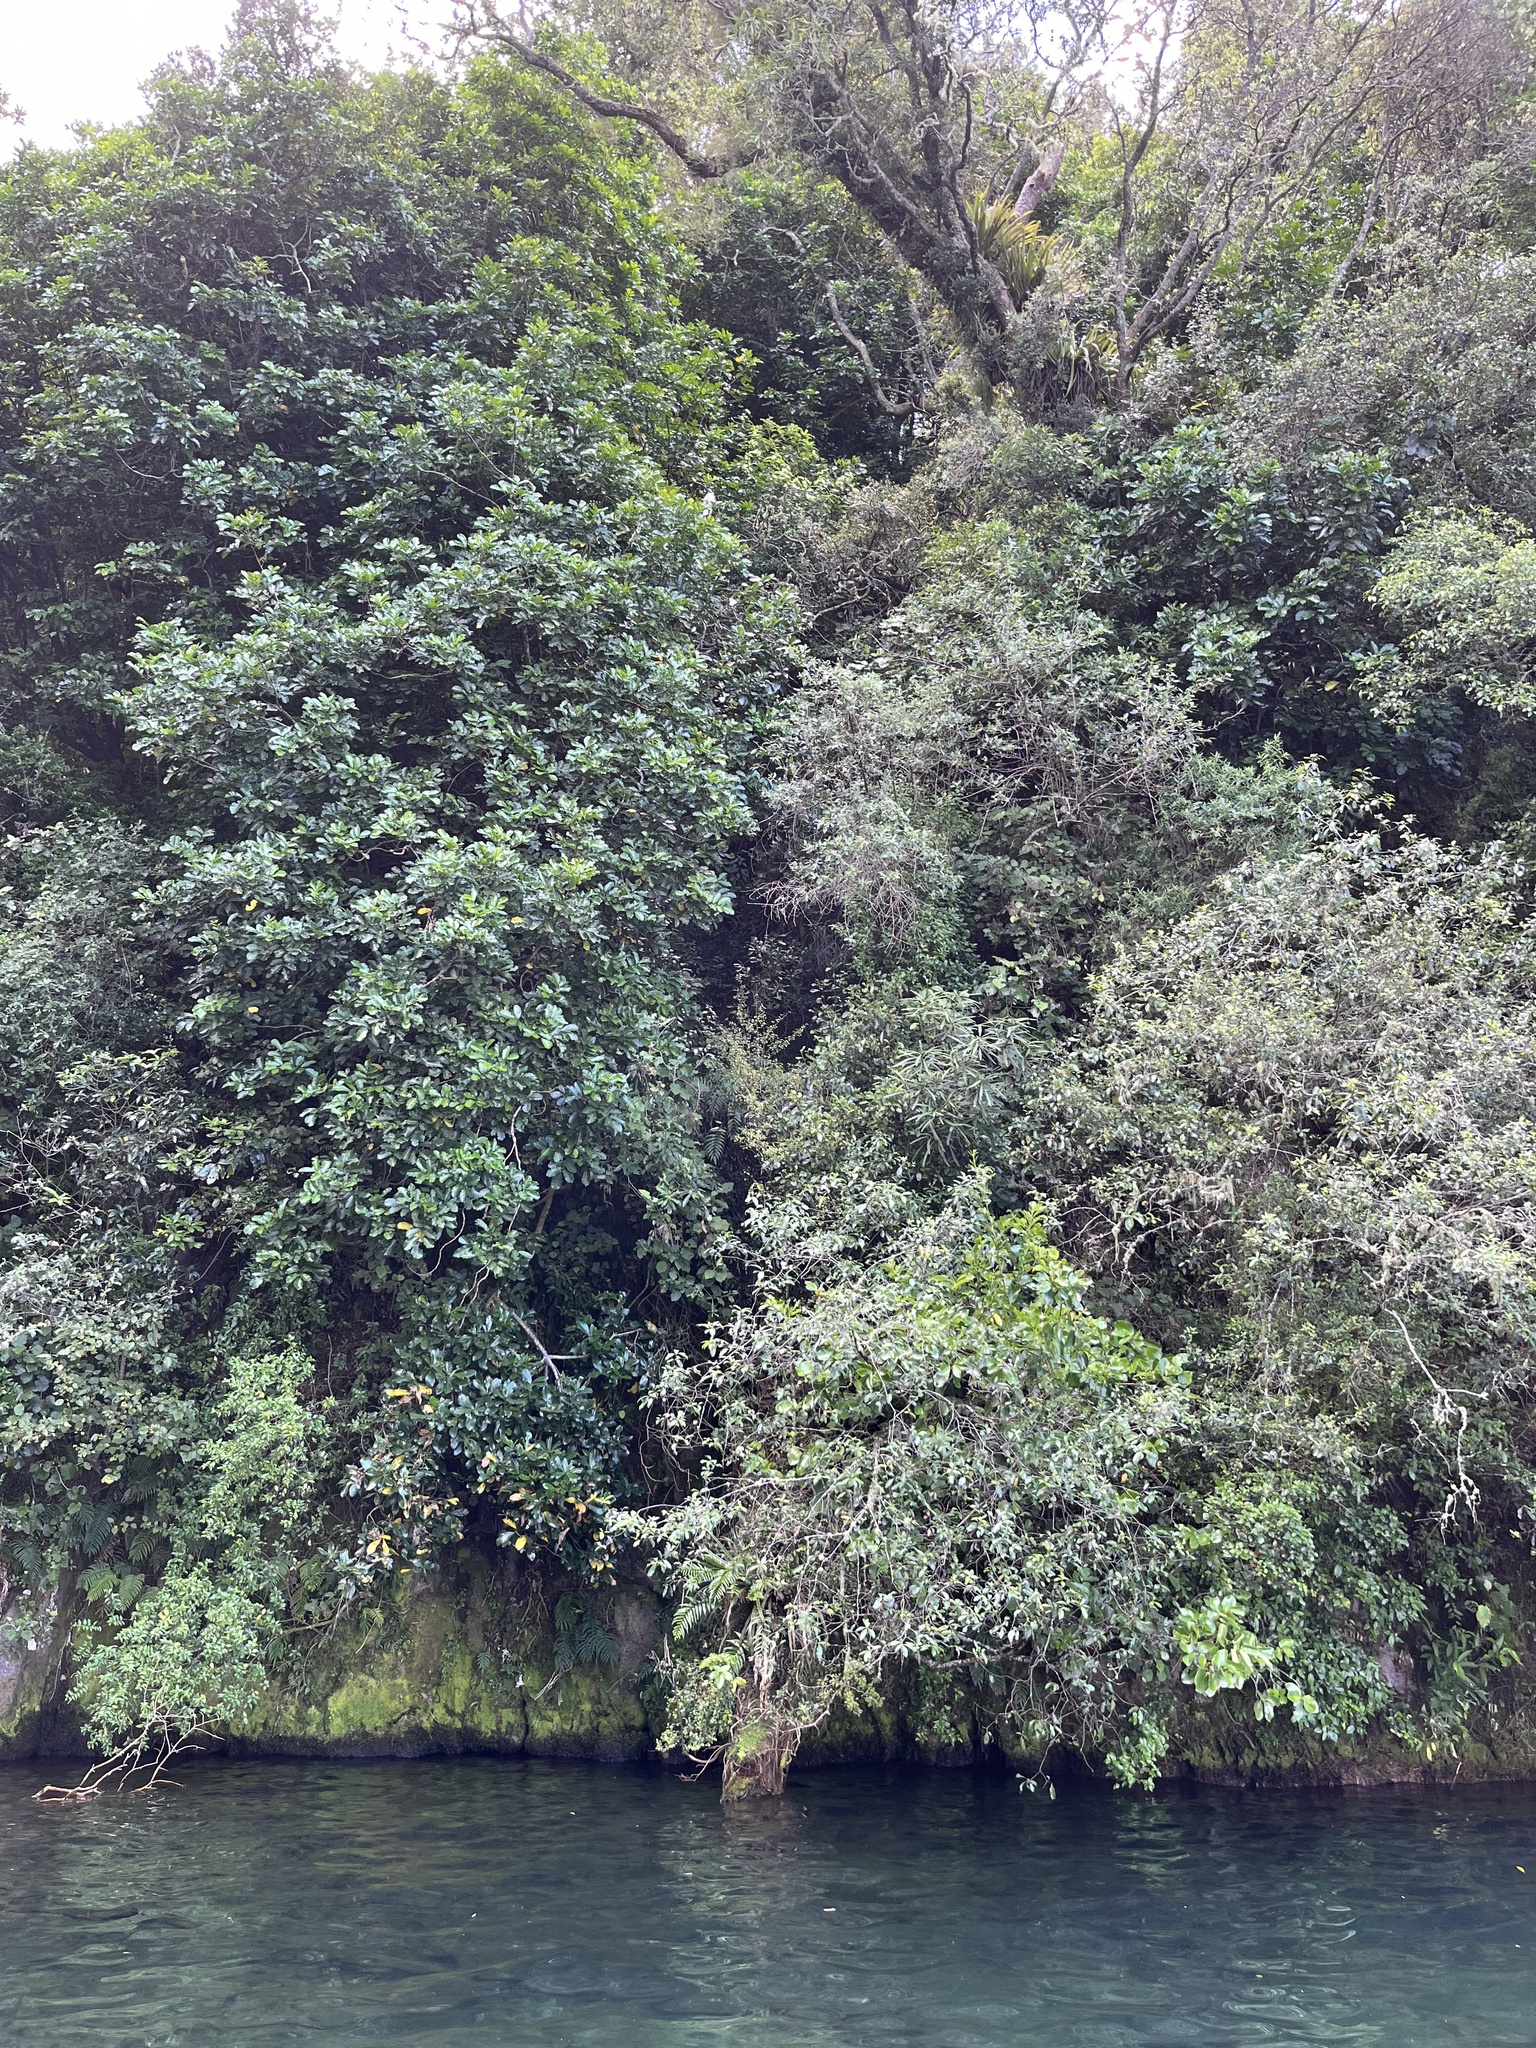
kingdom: Plantae
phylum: Tracheophyta
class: Magnoliopsida
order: Sapindales
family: Meliaceae
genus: Didymocheton
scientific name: Didymocheton spectabilis
